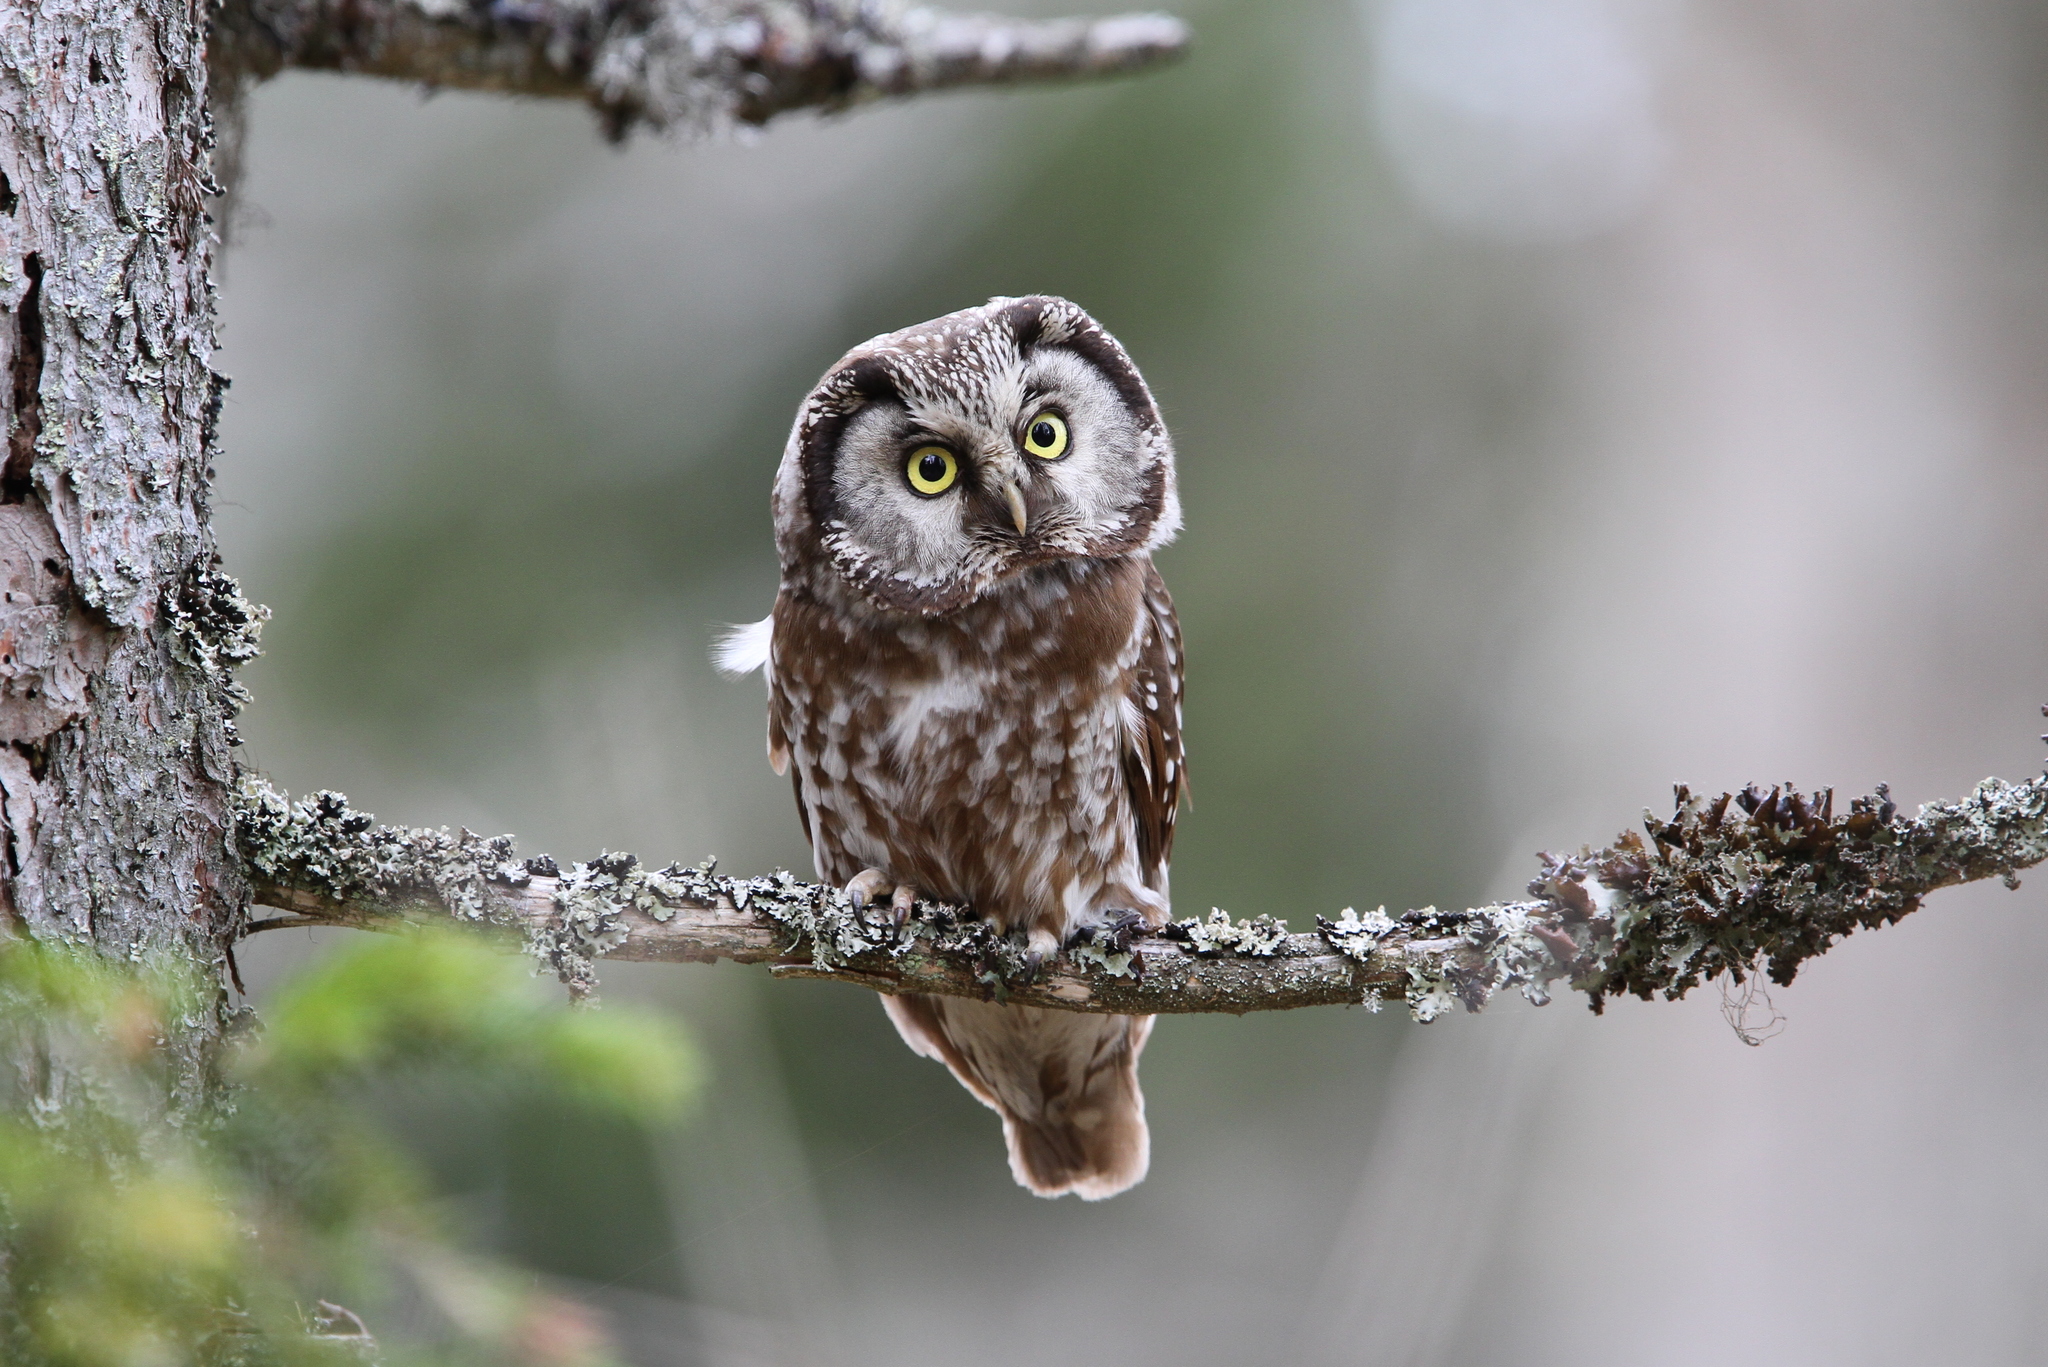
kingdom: Animalia
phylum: Chordata
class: Aves
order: Strigiformes
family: Strigidae
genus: Aegolius
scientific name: Aegolius funereus
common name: Boreal owl
